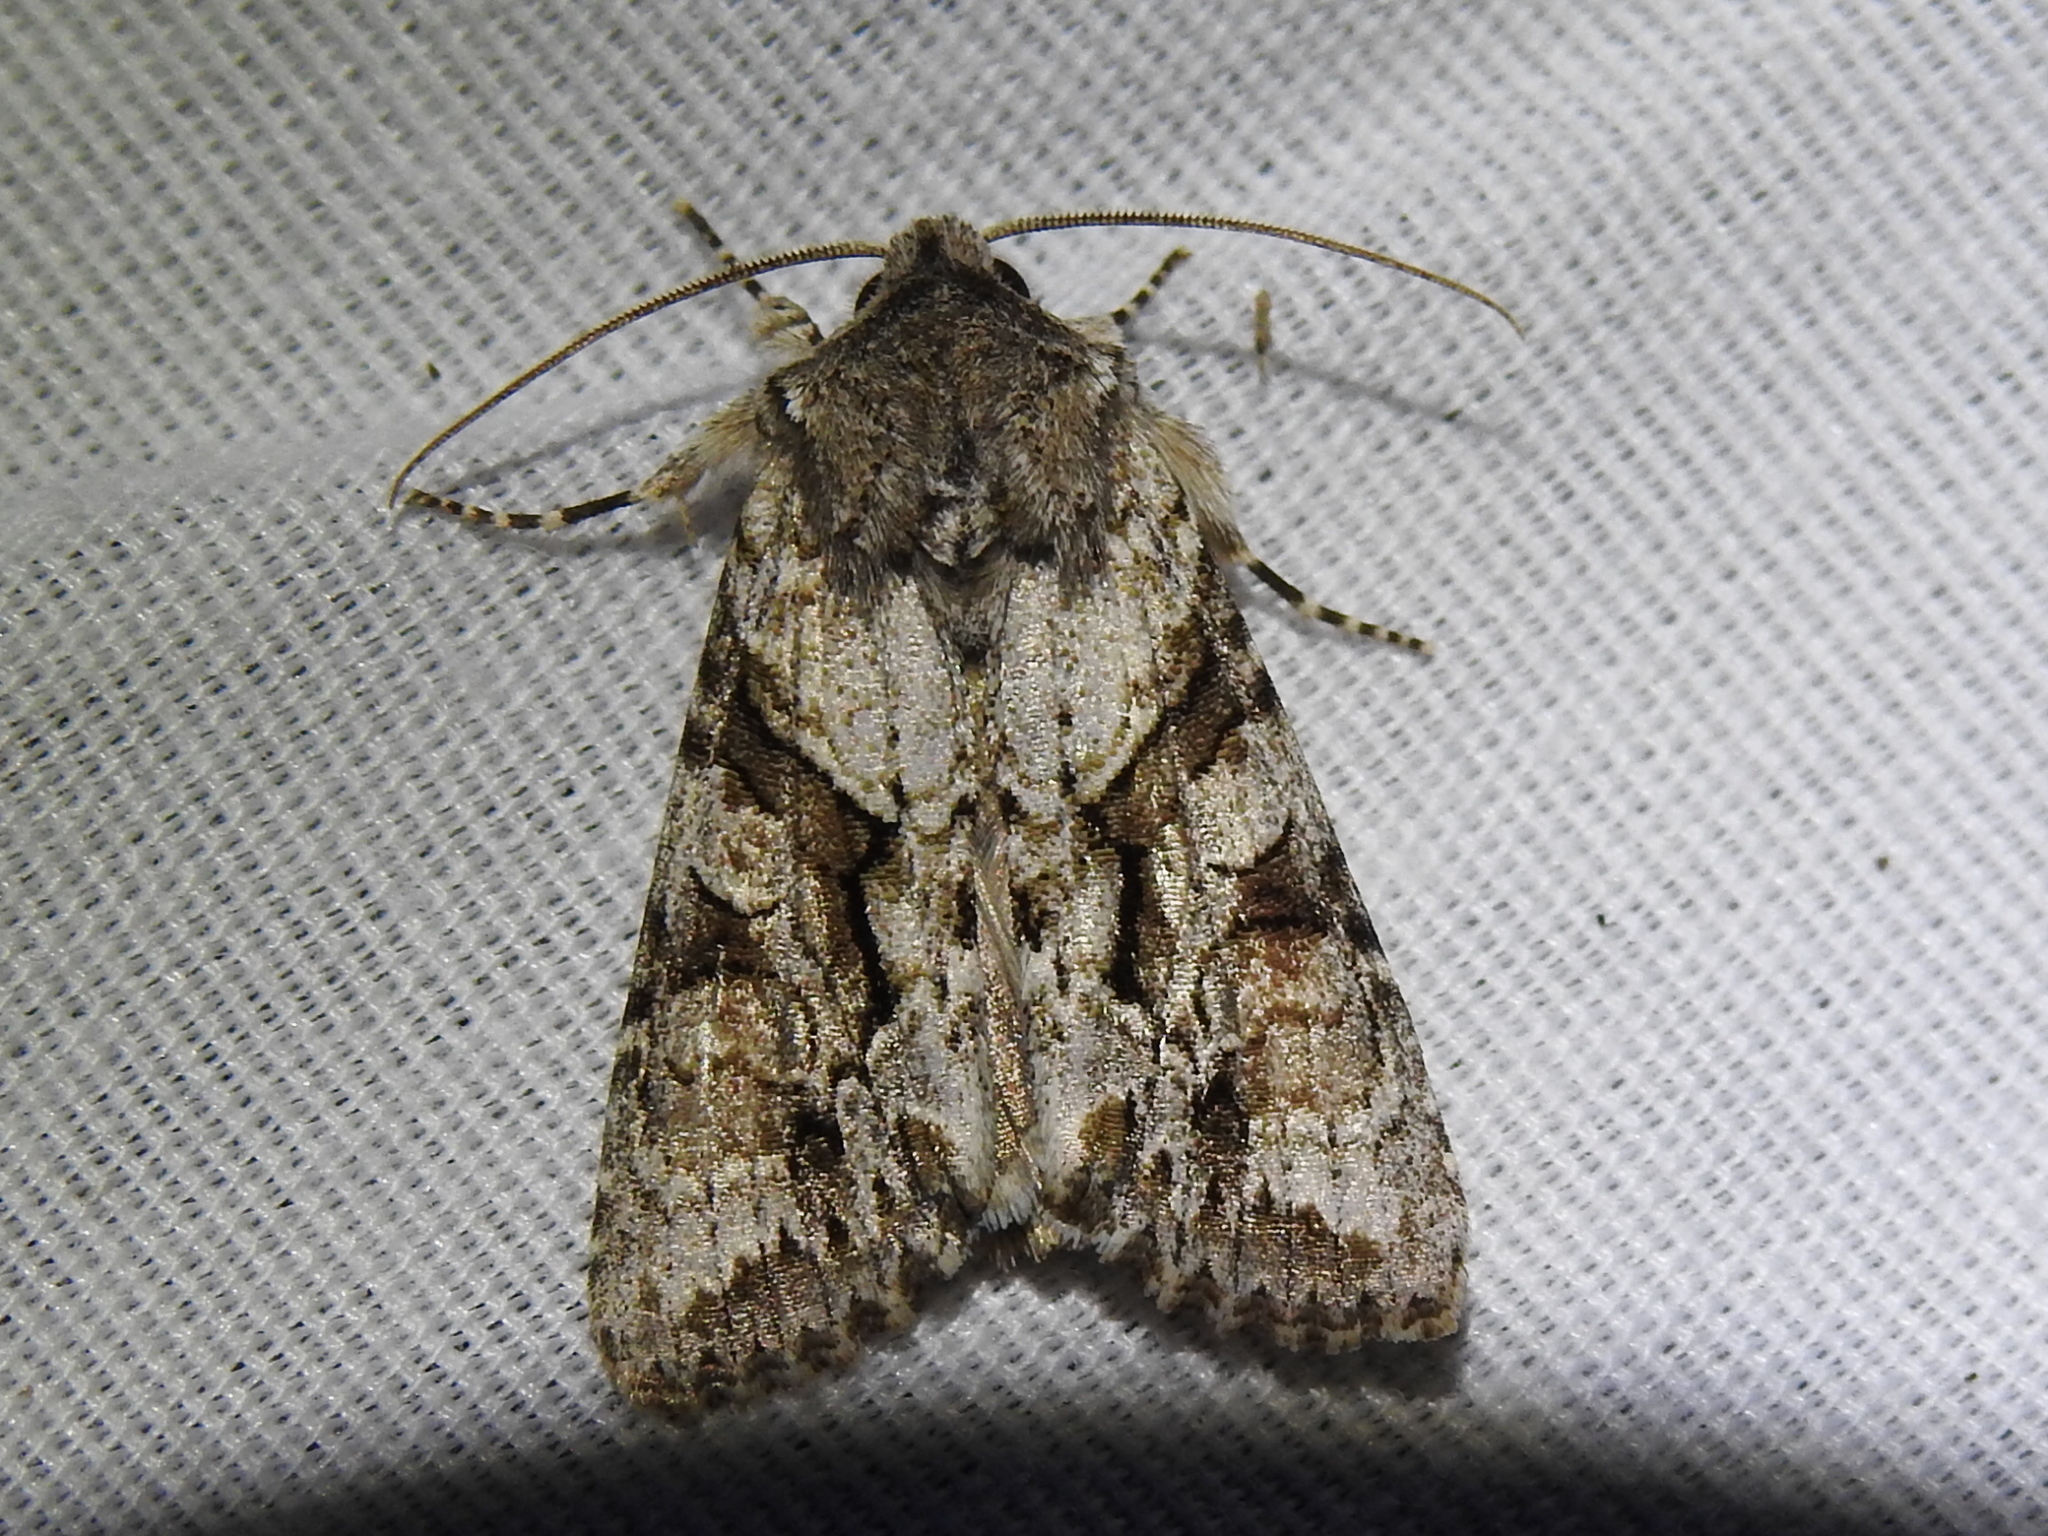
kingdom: Animalia
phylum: Arthropoda
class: Insecta
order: Lepidoptera
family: Noctuidae
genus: Achatia
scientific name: Achatia distincta
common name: Distinct quaker
